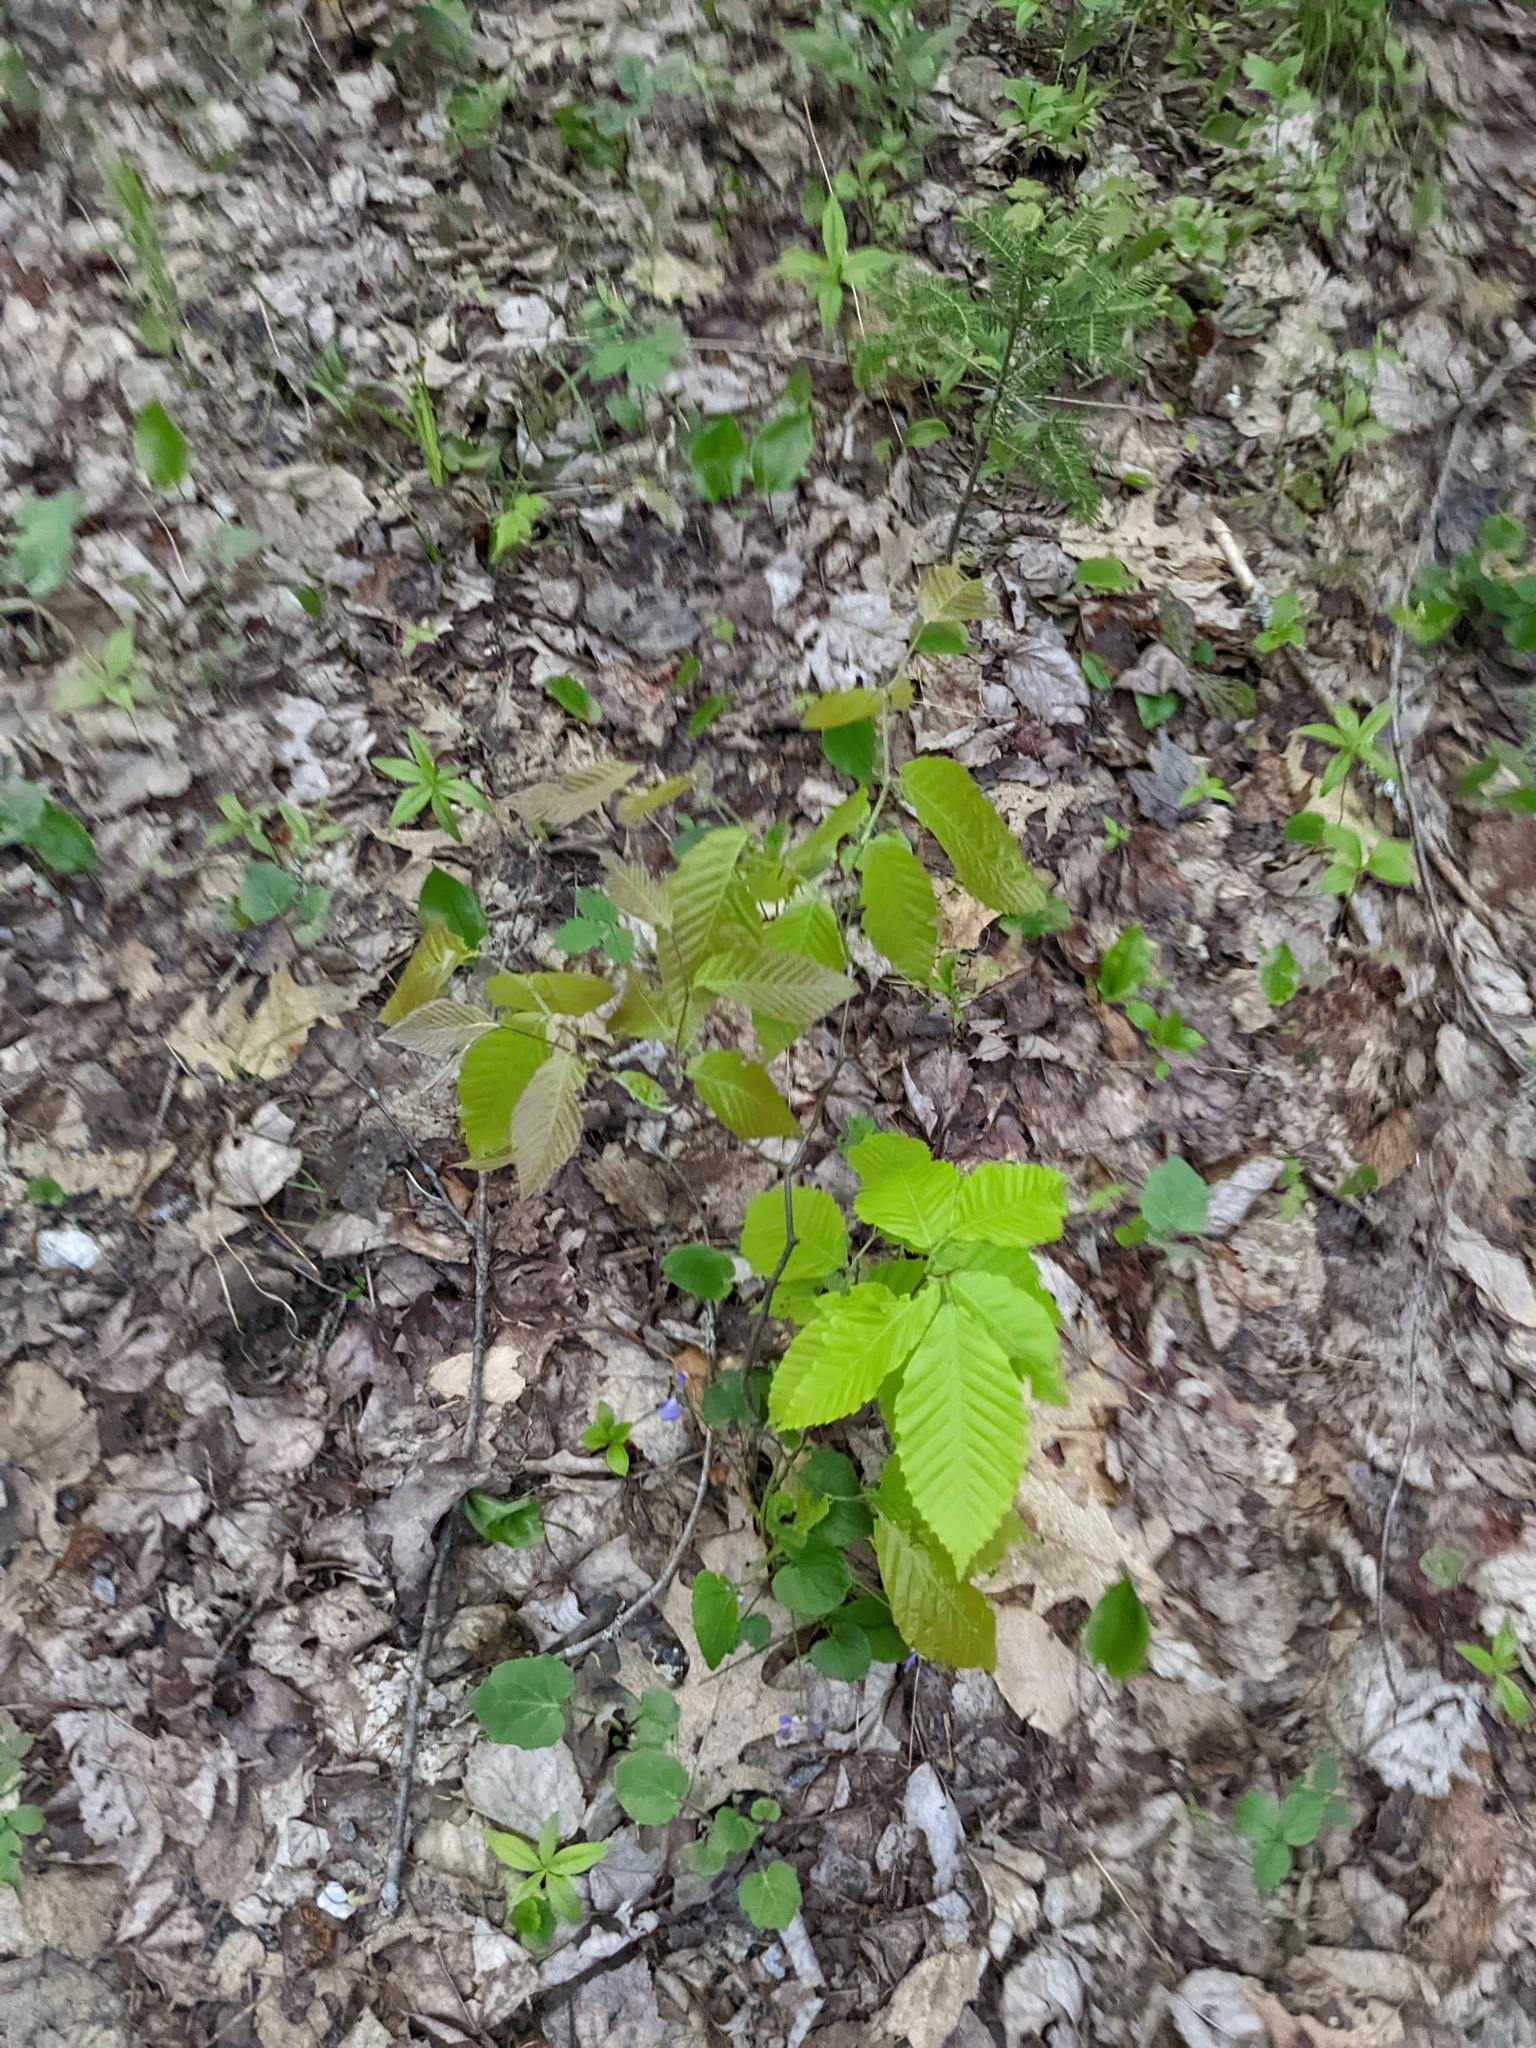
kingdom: Plantae
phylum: Tracheophyta
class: Magnoliopsida
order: Fagales
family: Fagaceae
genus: Fagus
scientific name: Fagus grandifolia
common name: American beech
